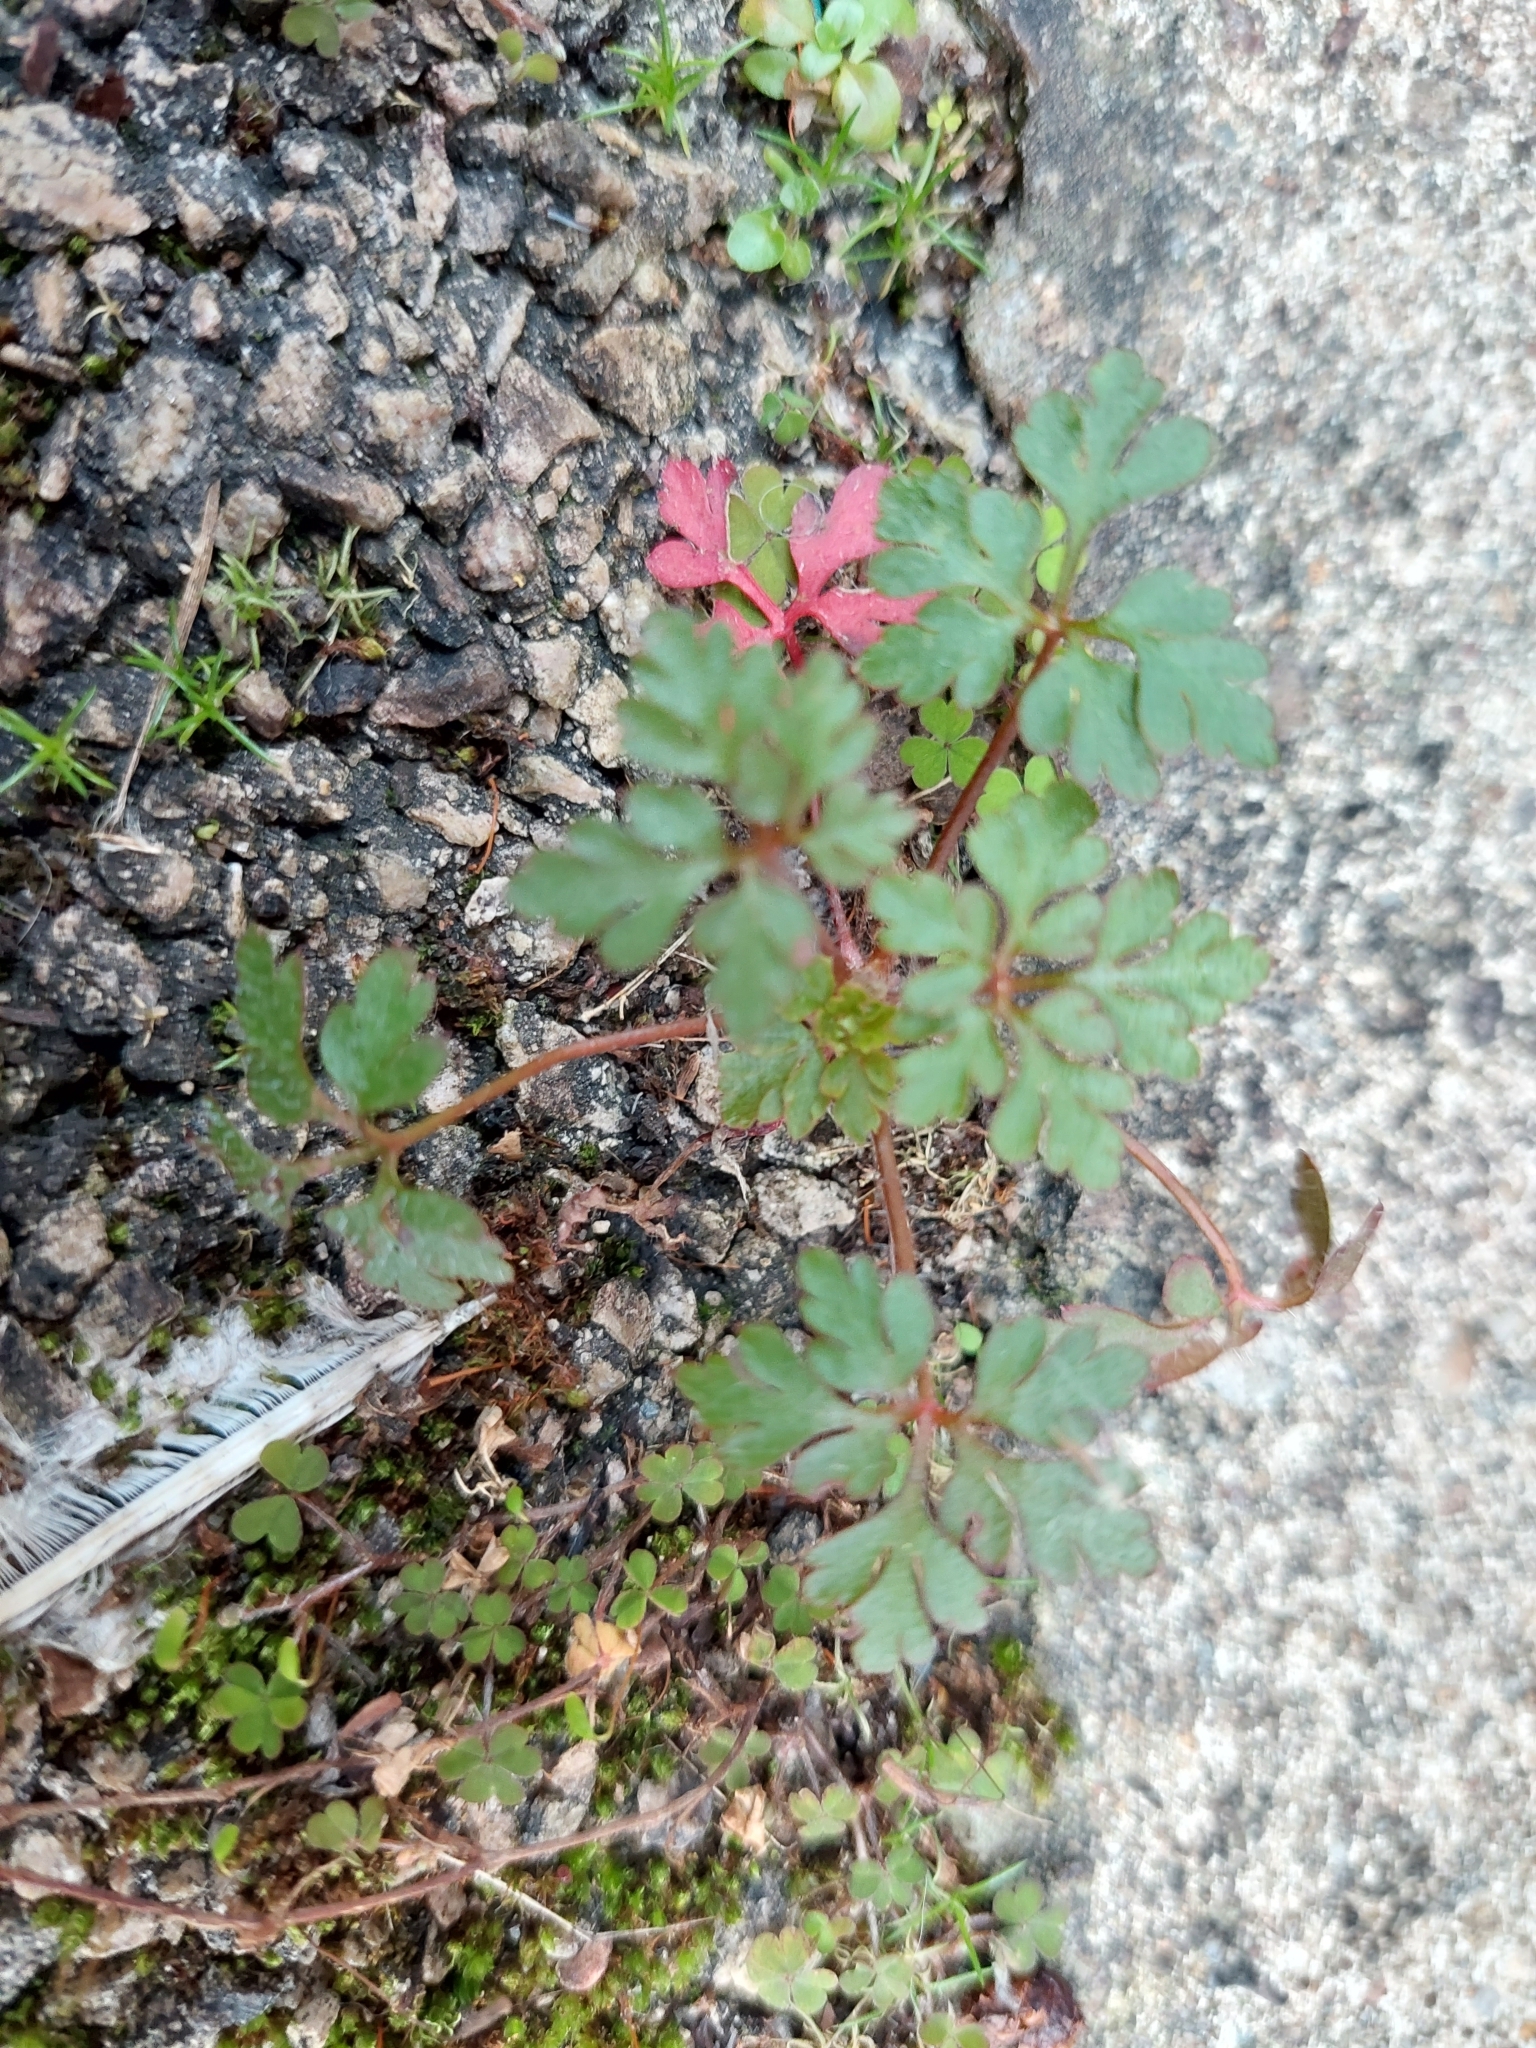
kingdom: Plantae
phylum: Tracheophyta
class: Magnoliopsida
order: Geraniales
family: Geraniaceae
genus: Geranium
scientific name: Geranium robertianum
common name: Herb-robert
